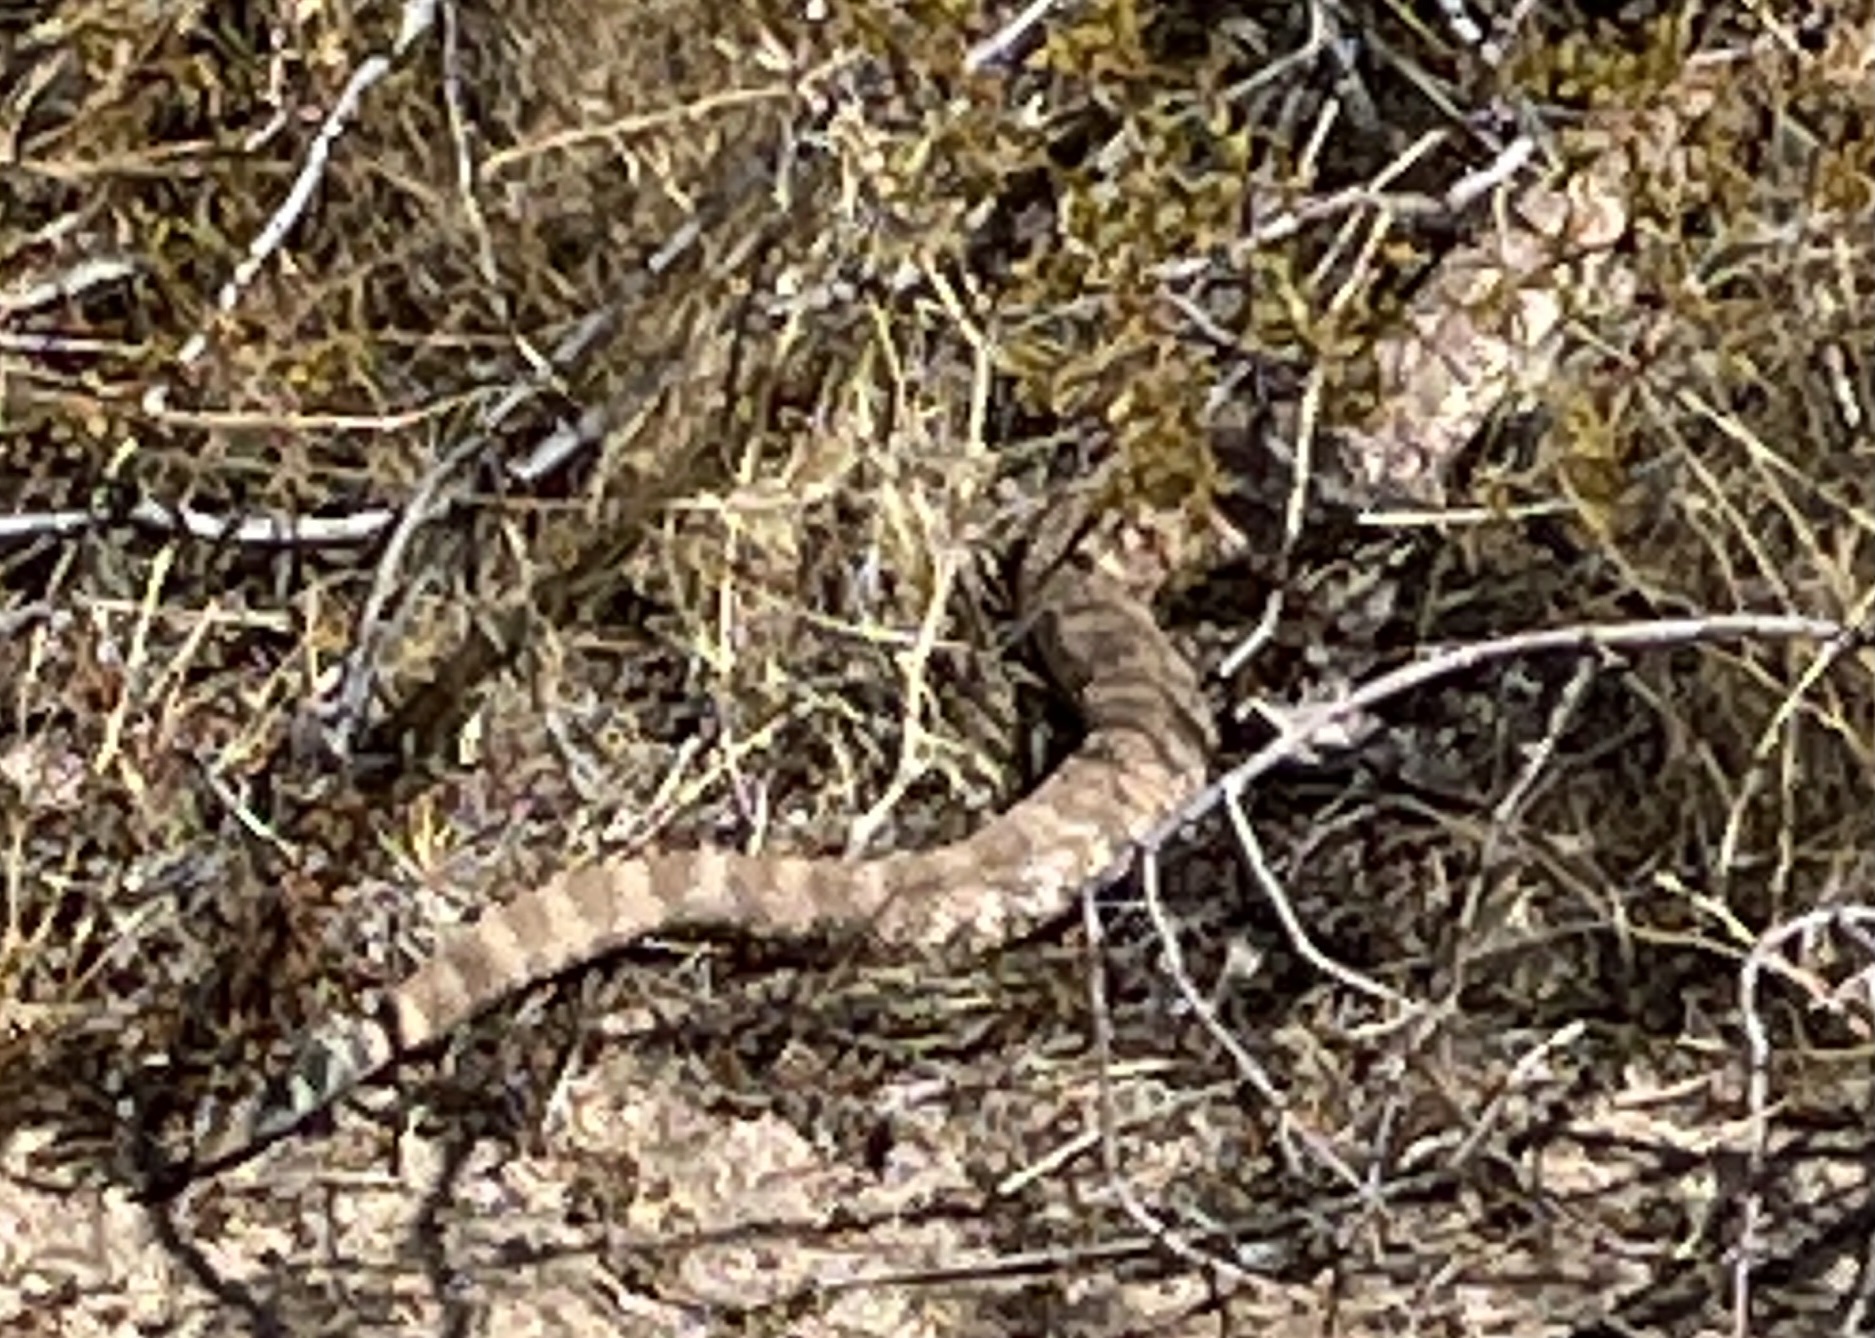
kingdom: Animalia
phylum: Chordata
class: Squamata
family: Viperidae
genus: Crotalus
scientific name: Crotalus pyrrhus
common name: Southwestern speckled rattlesnake
